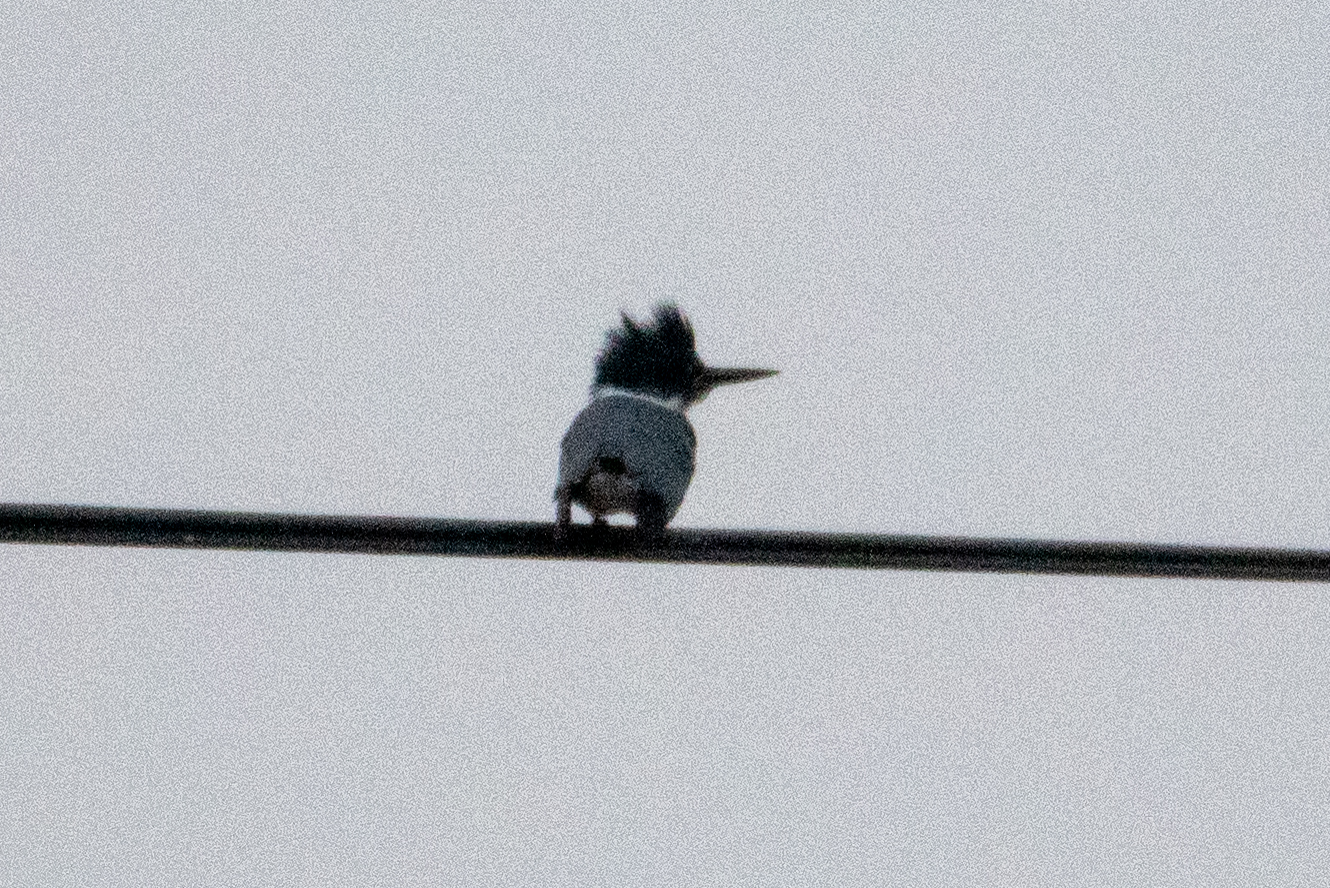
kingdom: Animalia
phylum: Chordata
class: Aves
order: Coraciiformes
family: Alcedinidae
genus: Megaceryle
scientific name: Megaceryle alcyon
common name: Belted kingfisher
